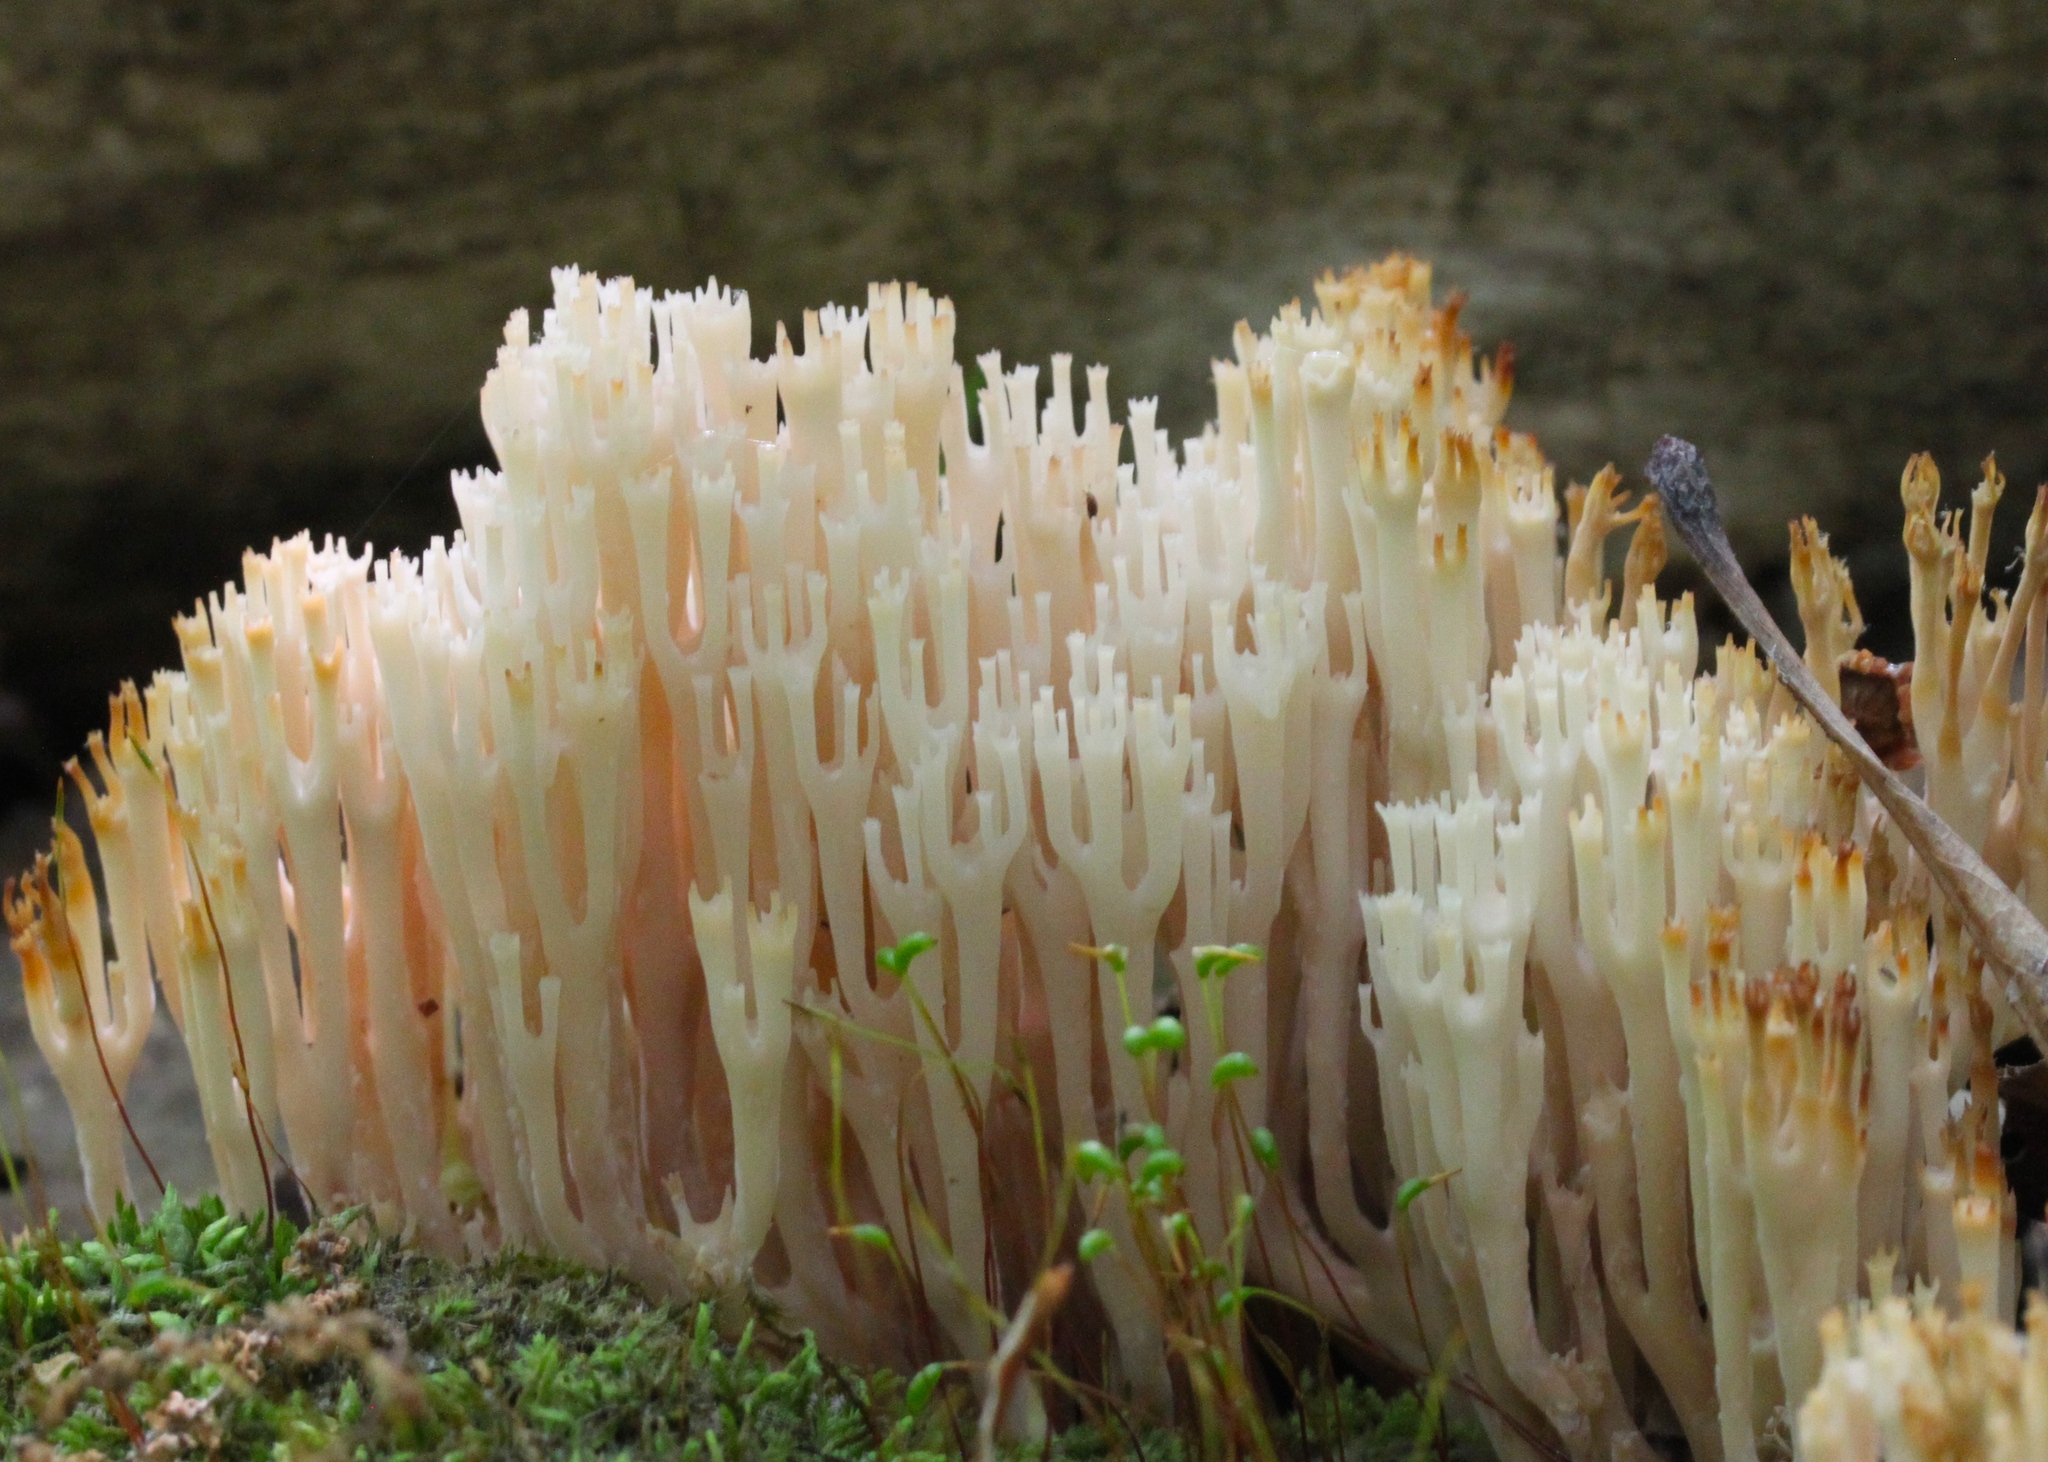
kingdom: Fungi
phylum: Basidiomycota
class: Agaricomycetes
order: Russulales
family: Auriscalpiaceae
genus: Artomyces
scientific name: Artomyces pyxidatus
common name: Crown-tipped coral fungus
